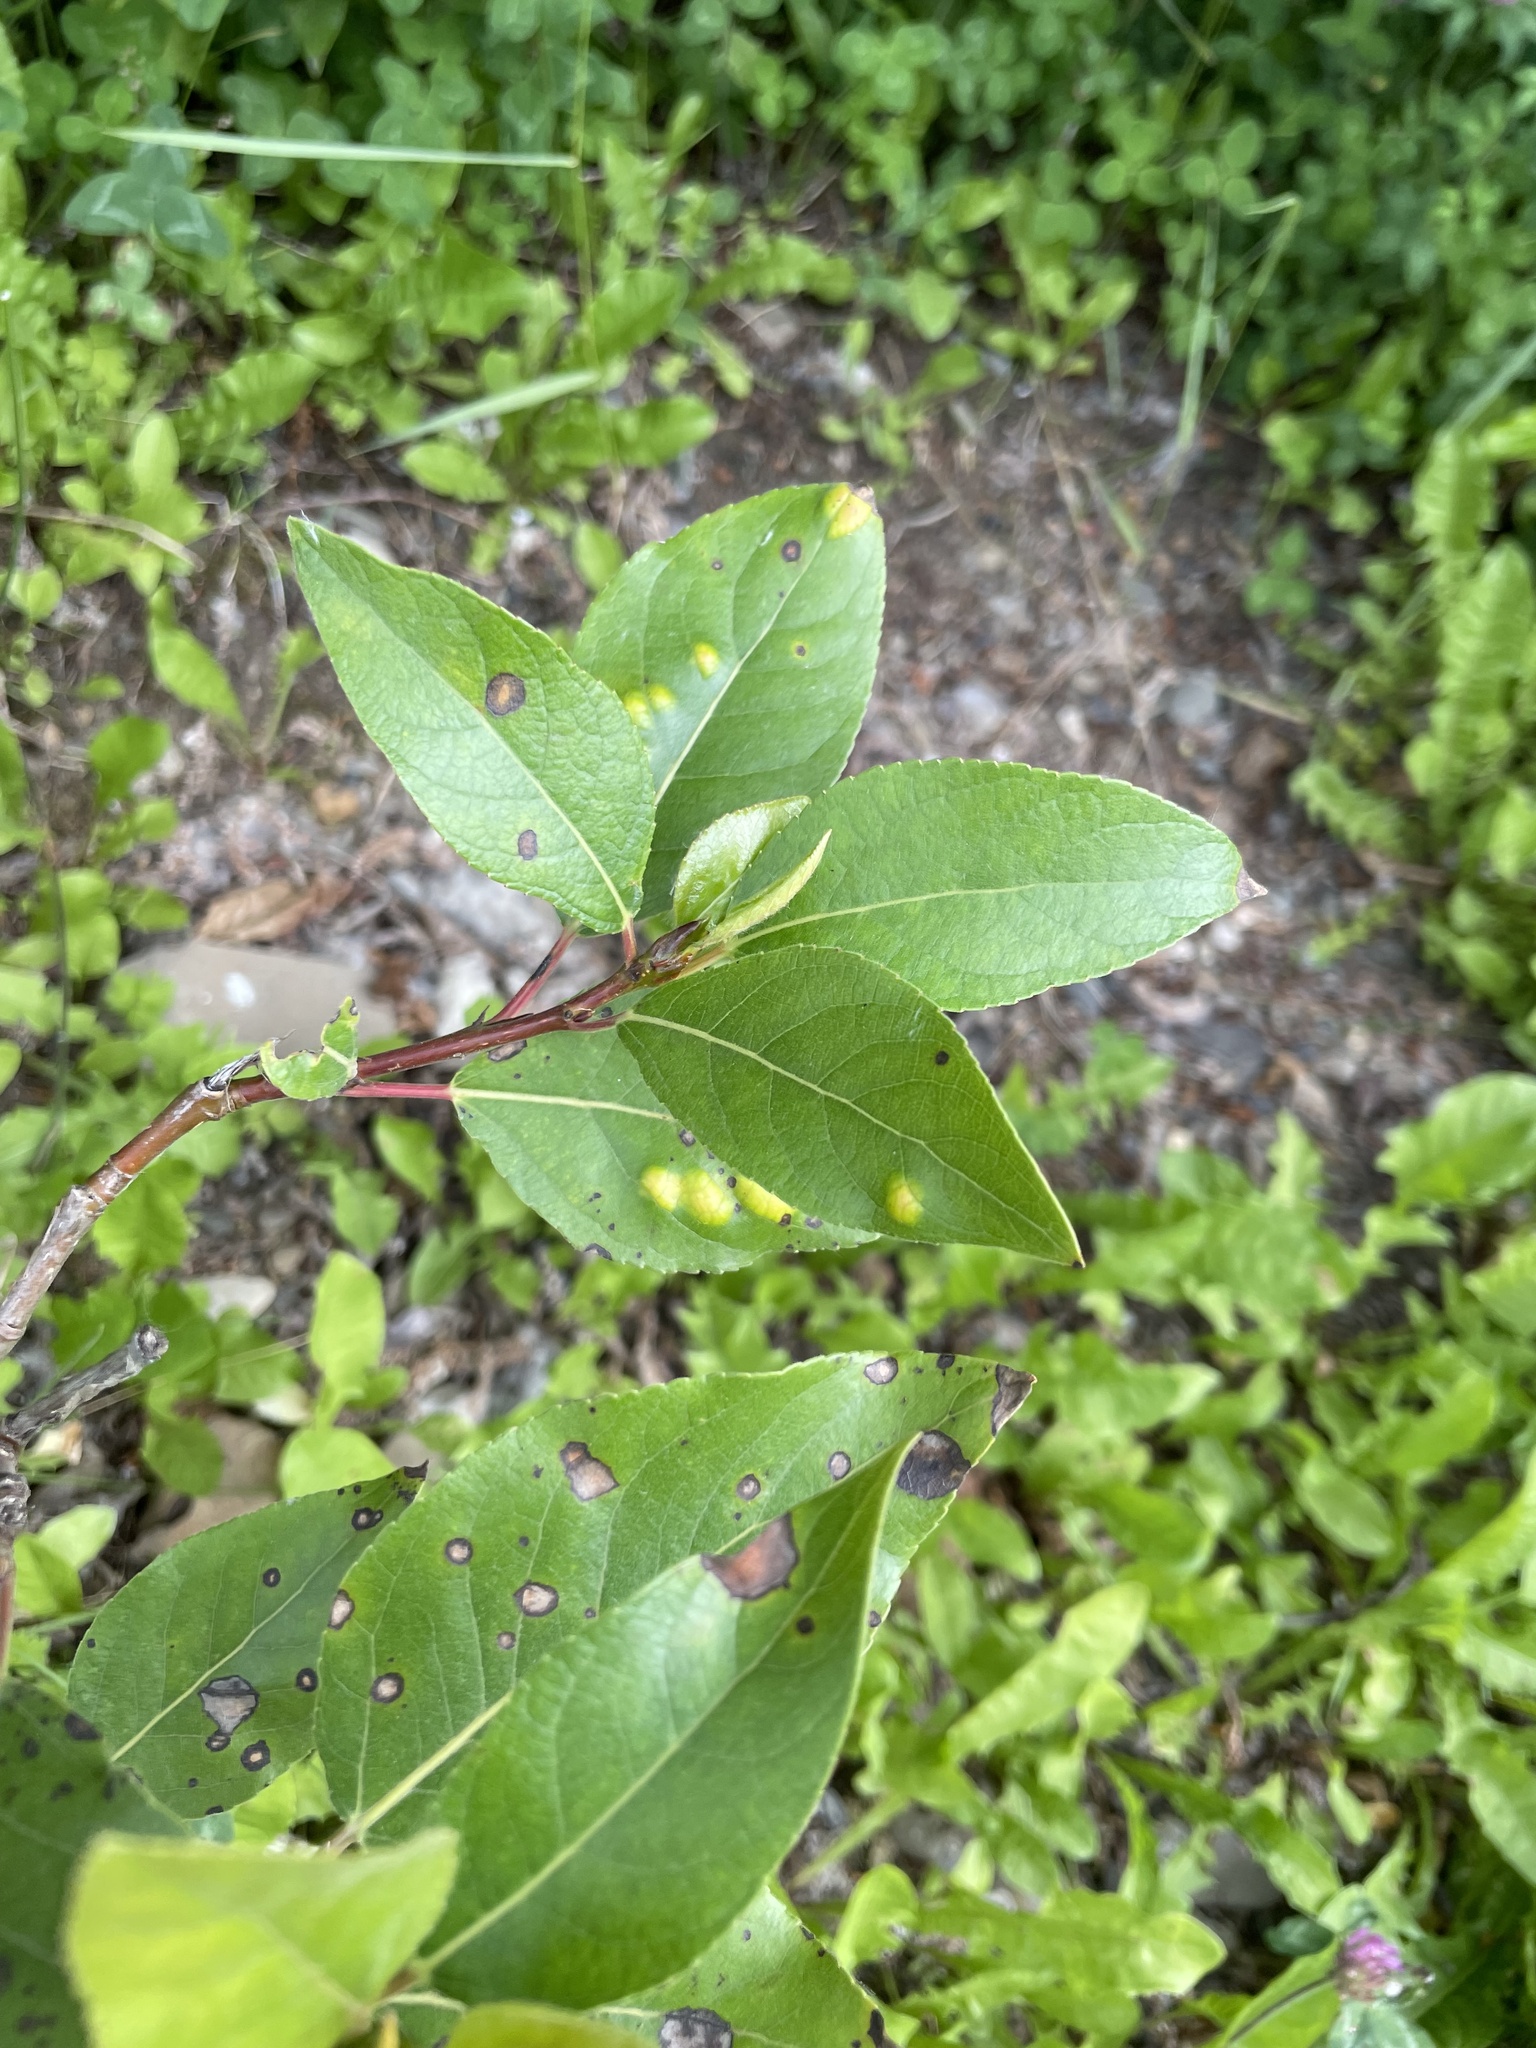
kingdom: Plantae
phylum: Tracheophyta
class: Magnoliopsida
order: Malpighiales
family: Salicaceae
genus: Populus
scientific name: Populus trichocarpa
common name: Black cottonwood
